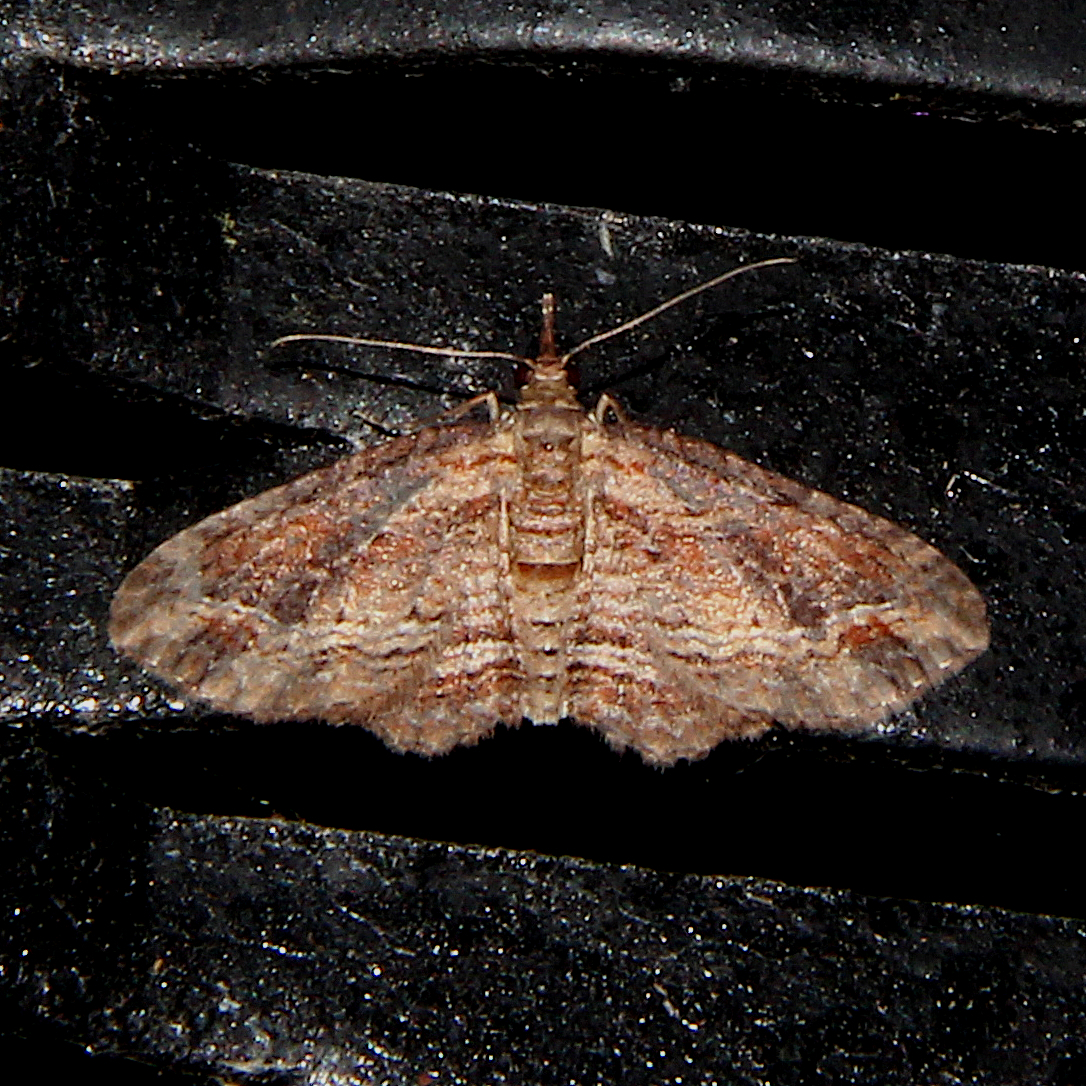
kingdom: Animalia
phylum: Arthropoda
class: Insecta
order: Lepidoptera
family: Geometridae
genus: Chloroclystis
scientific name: Chloroclystis filata
